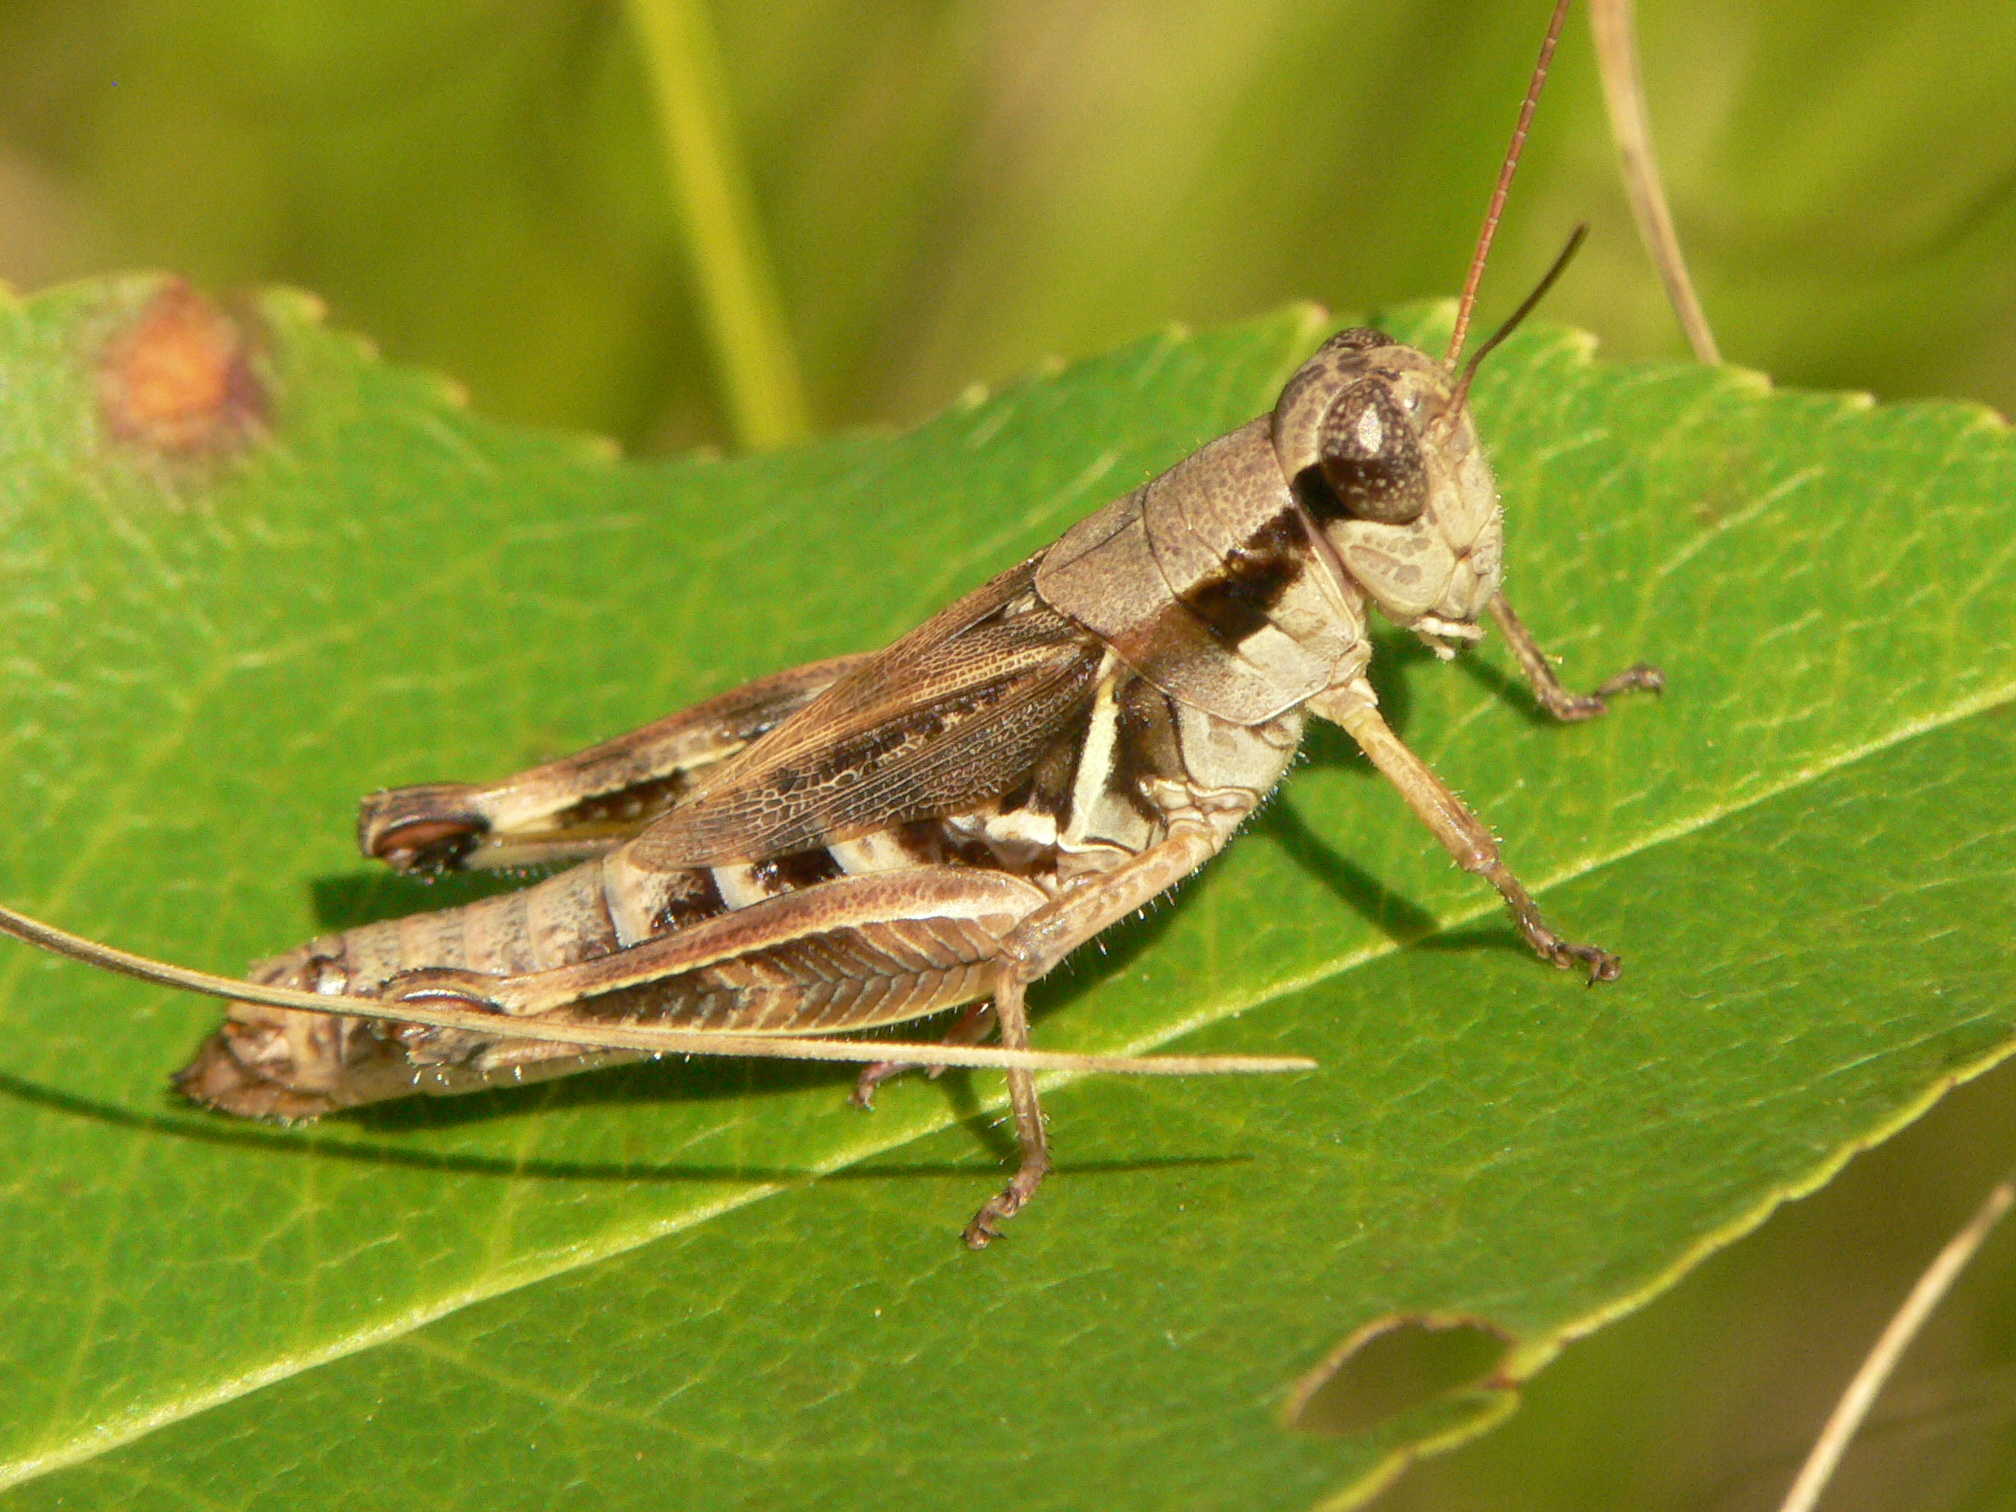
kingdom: Animalia
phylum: Arthropoda
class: Insecta
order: Orthoptera
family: Acrididae
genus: Melanoplus
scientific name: Melanoplus fasciatus
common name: Huckleberry locust
